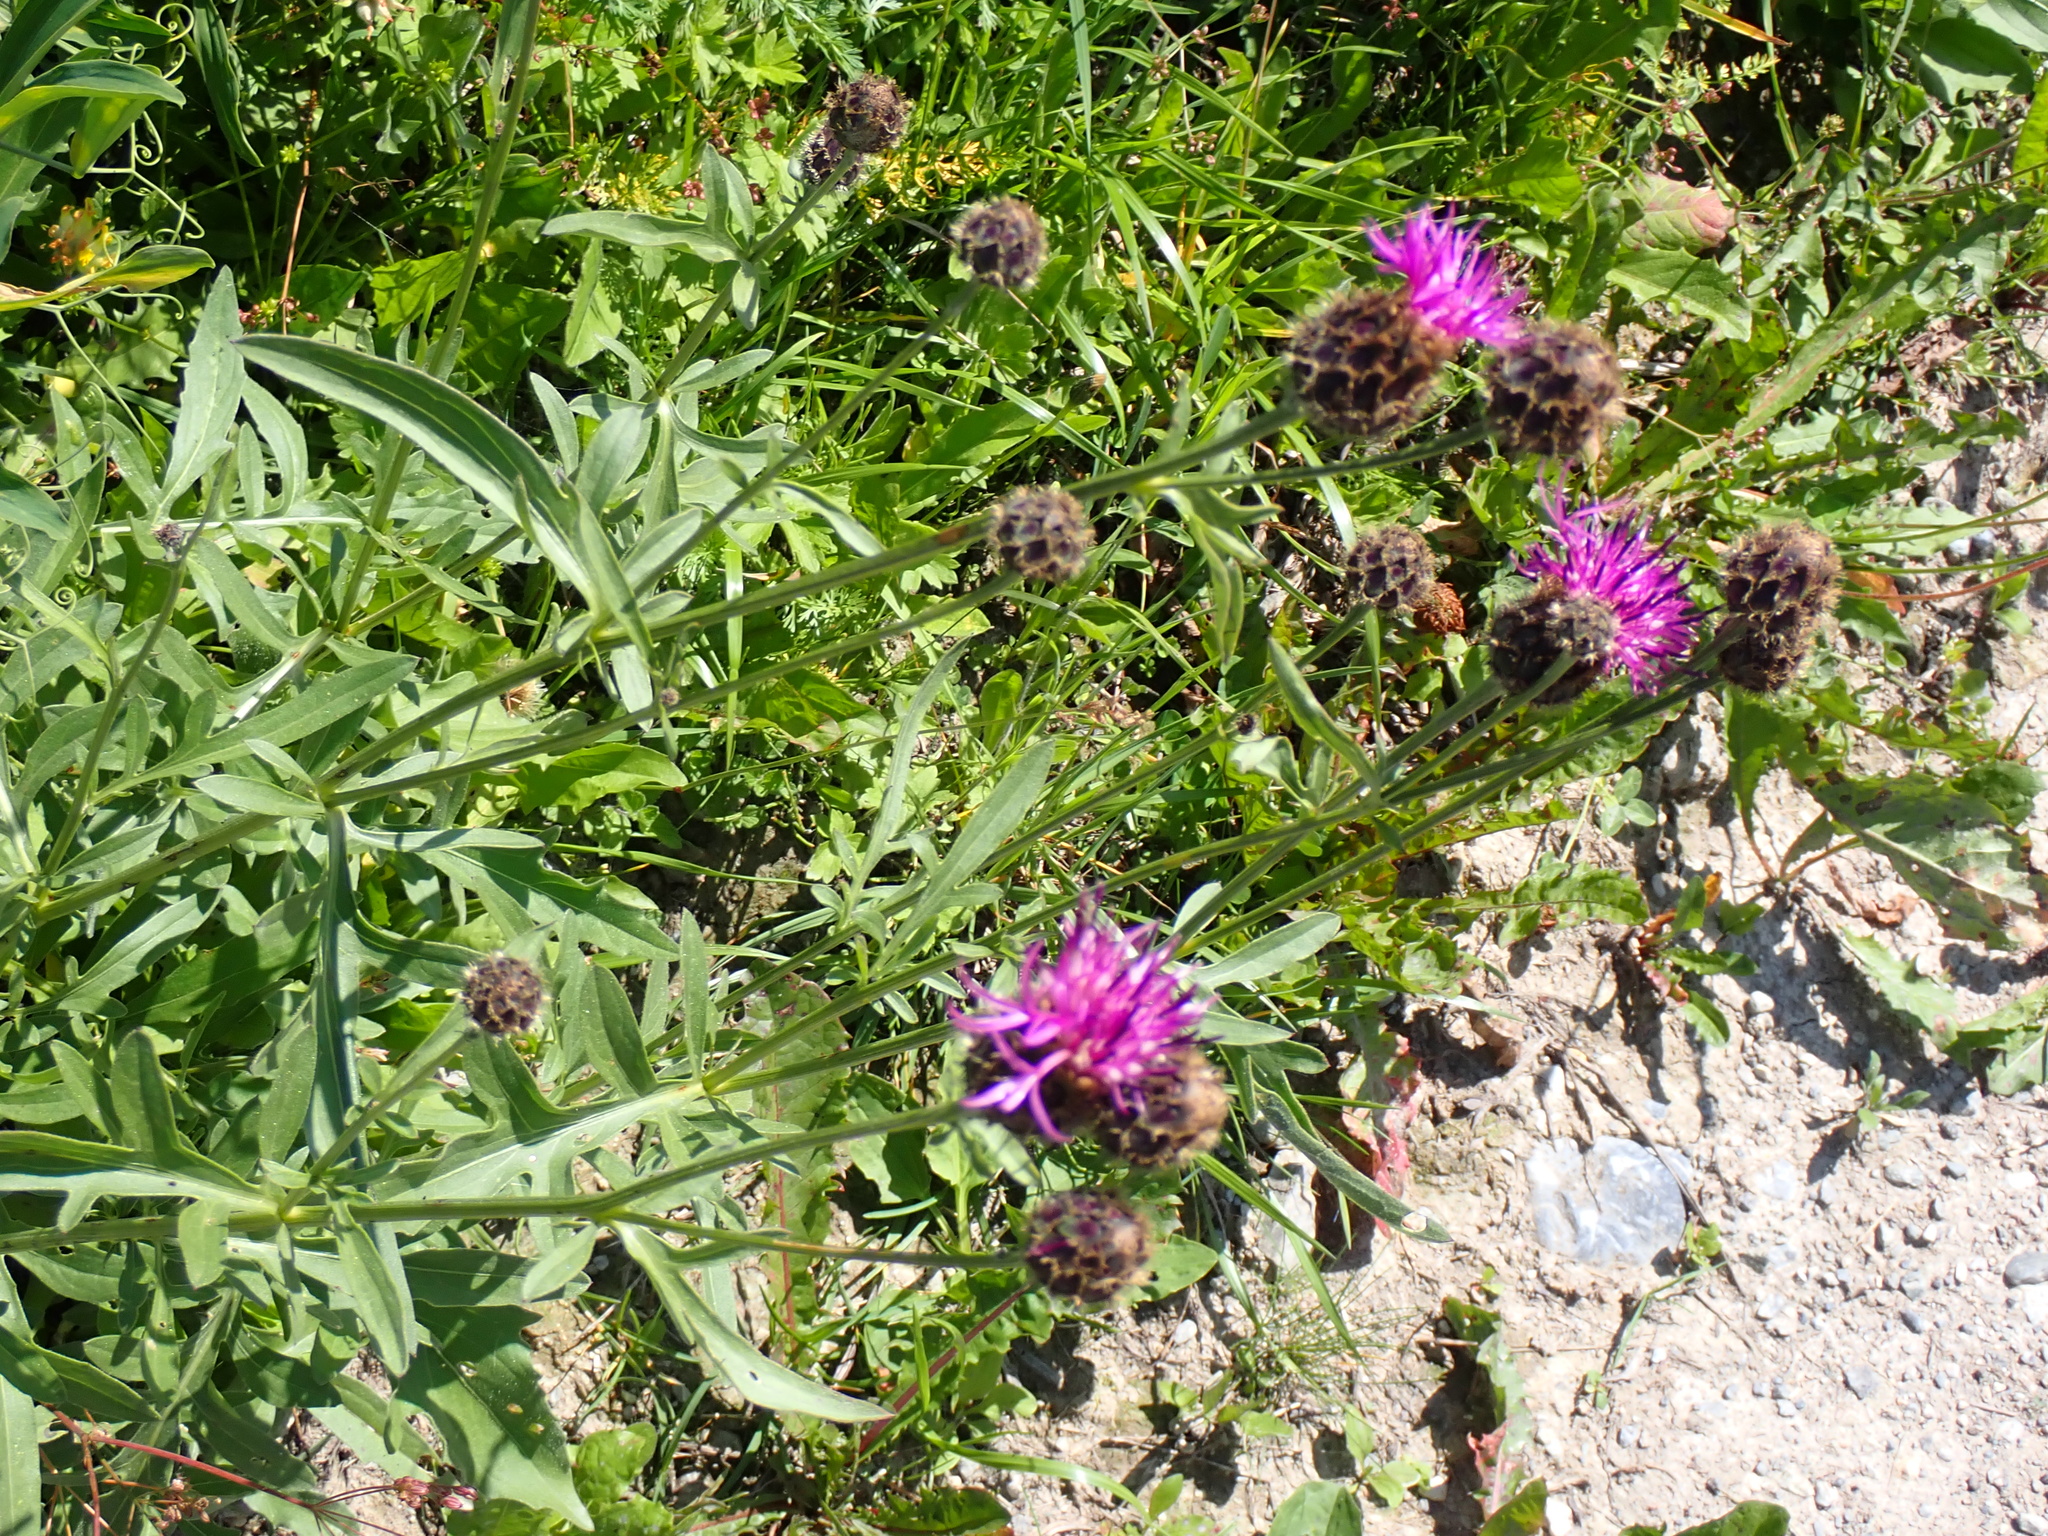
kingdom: Plantae
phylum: Tracheophyta
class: Magnoliopsida
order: Asterales
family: Asteraceae
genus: Centaurea
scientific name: Centaurea scabiosa
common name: Greater knapweed
